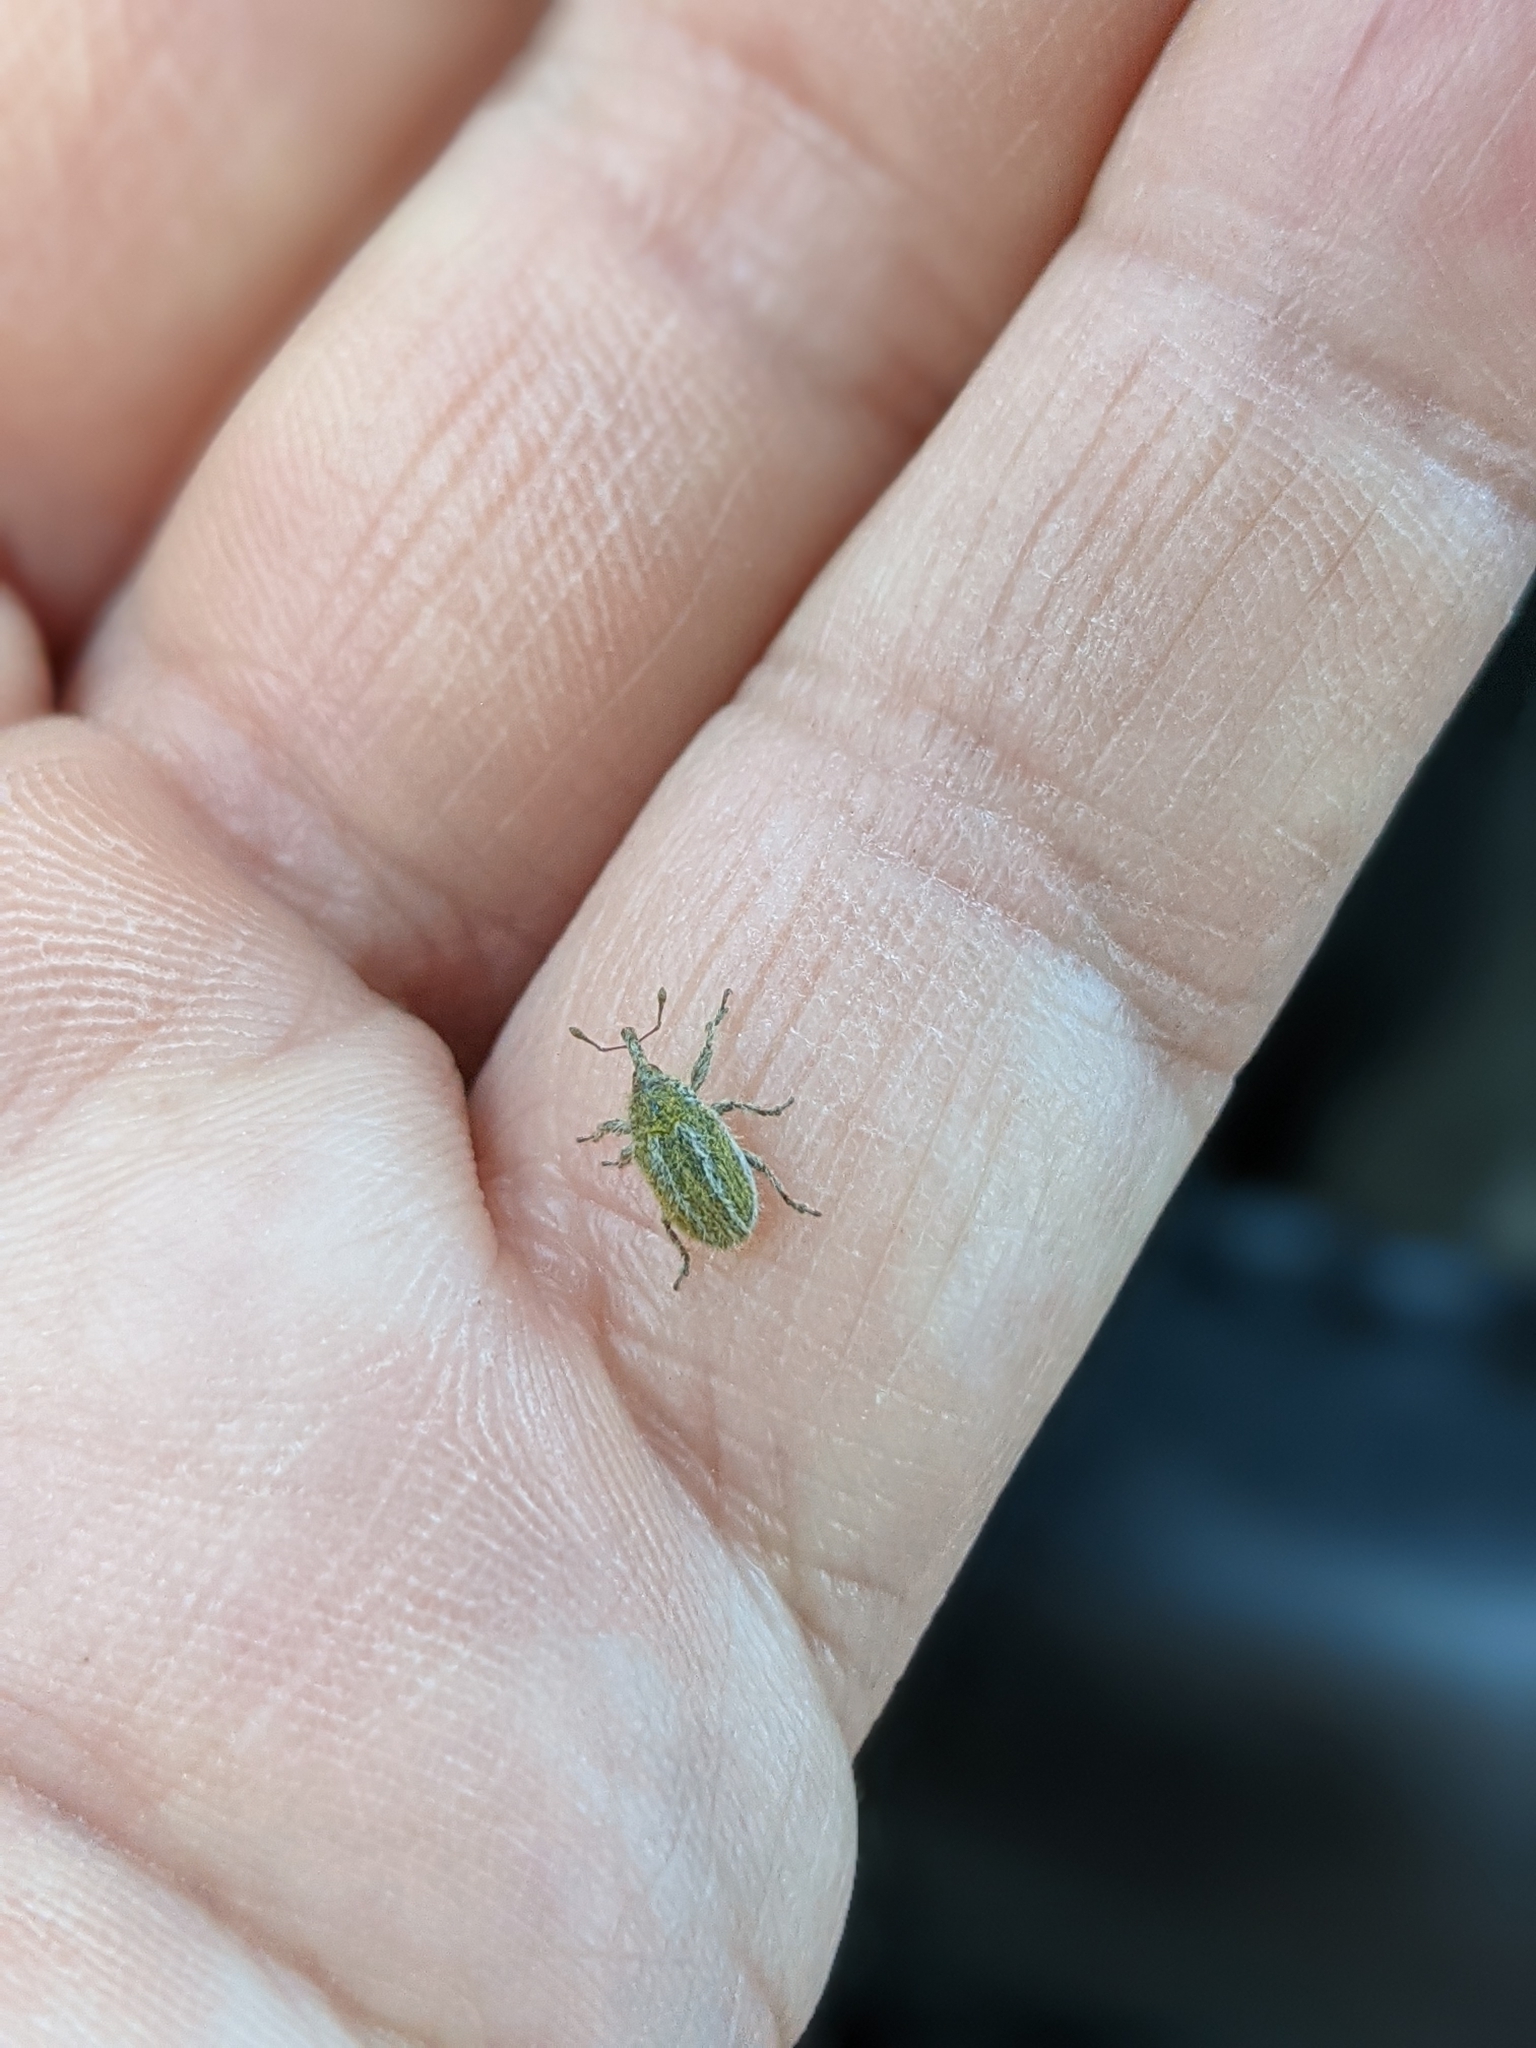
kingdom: Animalia
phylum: Arthropoda
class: Insecta
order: Coleoptera
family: Curculionidae
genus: Larinus
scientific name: Larinus villosus
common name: Yellow starthistle hairy weevil
